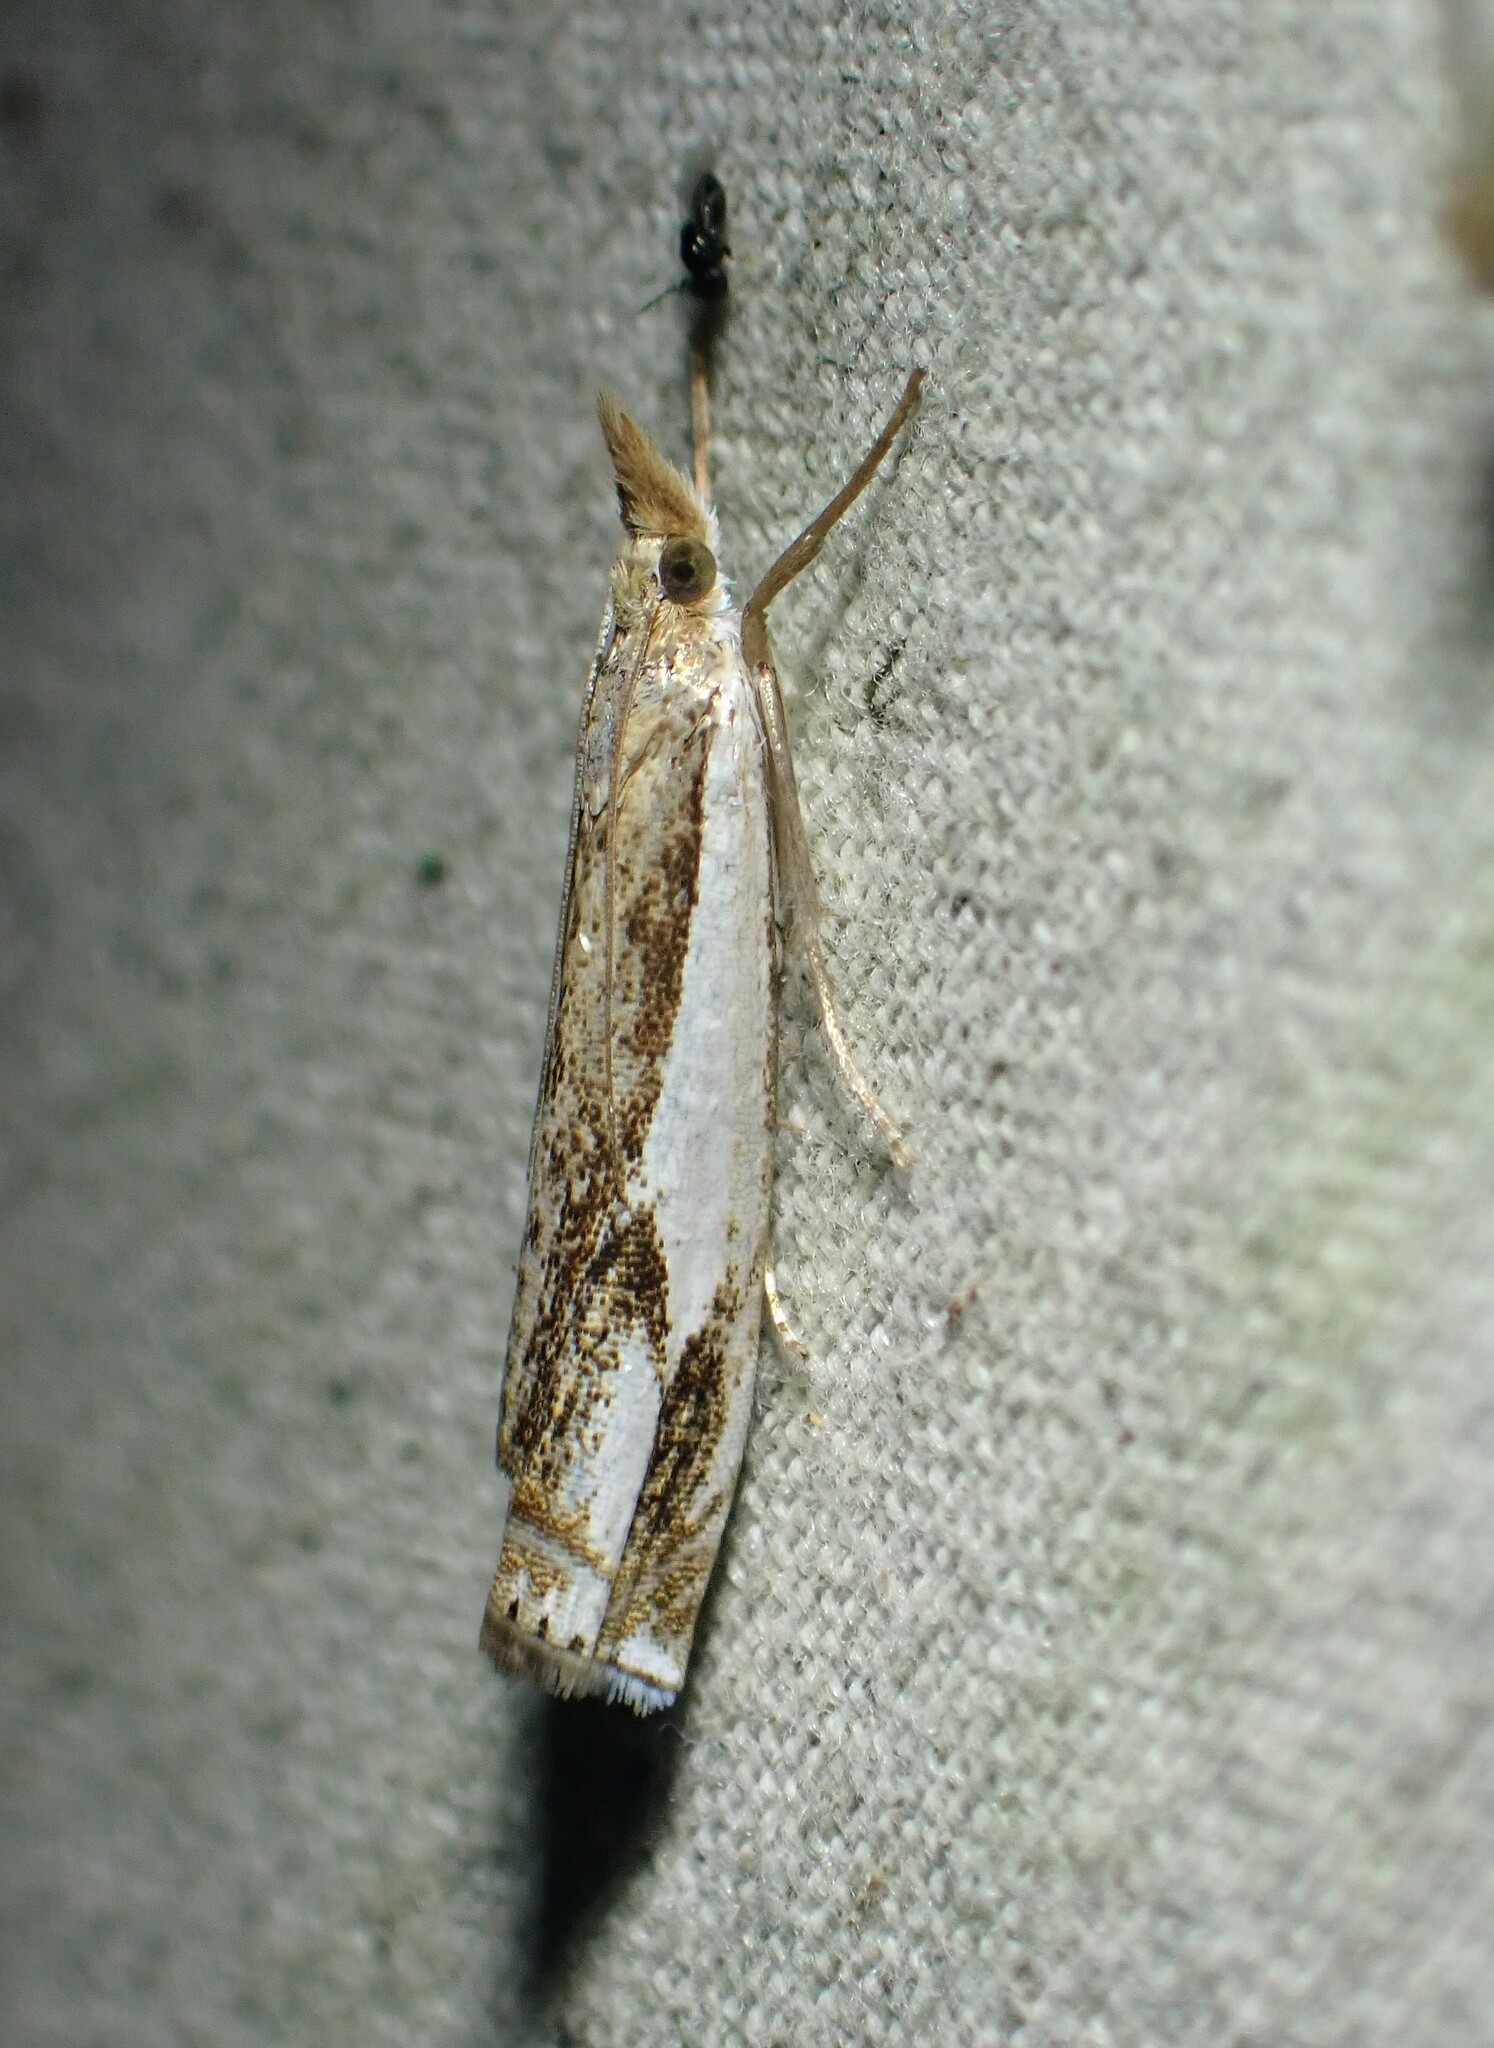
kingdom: Animalia
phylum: Arthropoda
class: Insecta
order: Lepidoptera
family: Crambidae
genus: Crambus
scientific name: Crambus agitatellus
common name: Double-banded grass-veneer
